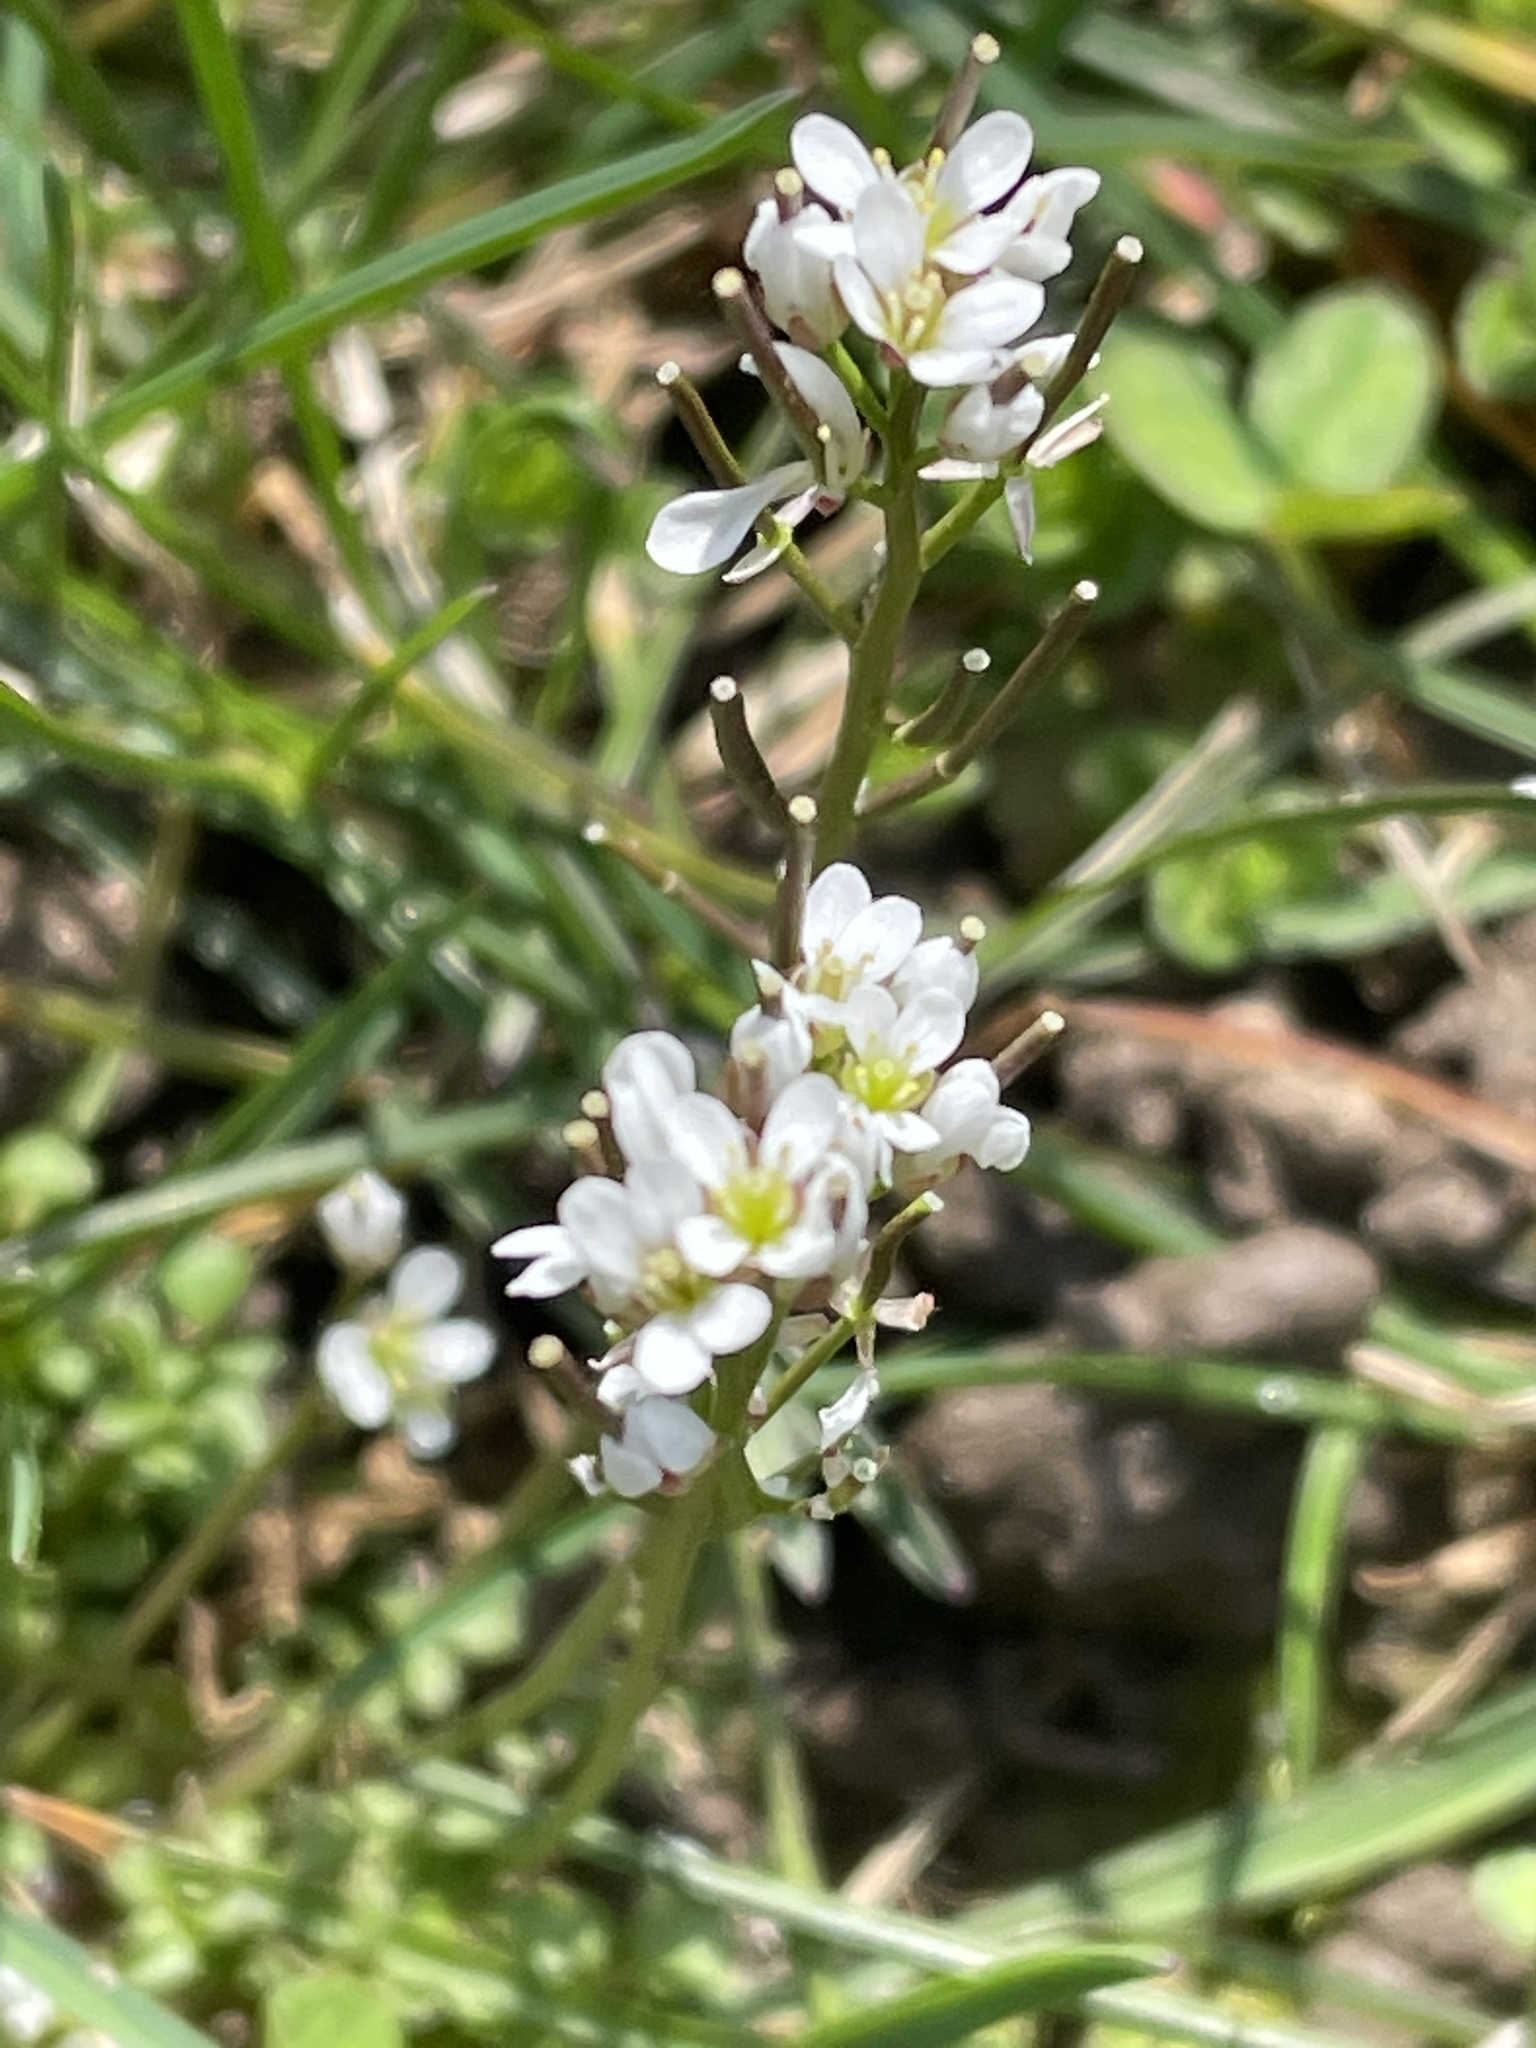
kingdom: Plantae
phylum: Tracheophyta
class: Magnoliopsida
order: Brassicales
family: Brassicaceae
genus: Cardamine
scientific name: Cardamine hirsuta
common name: Hairy bittercress
